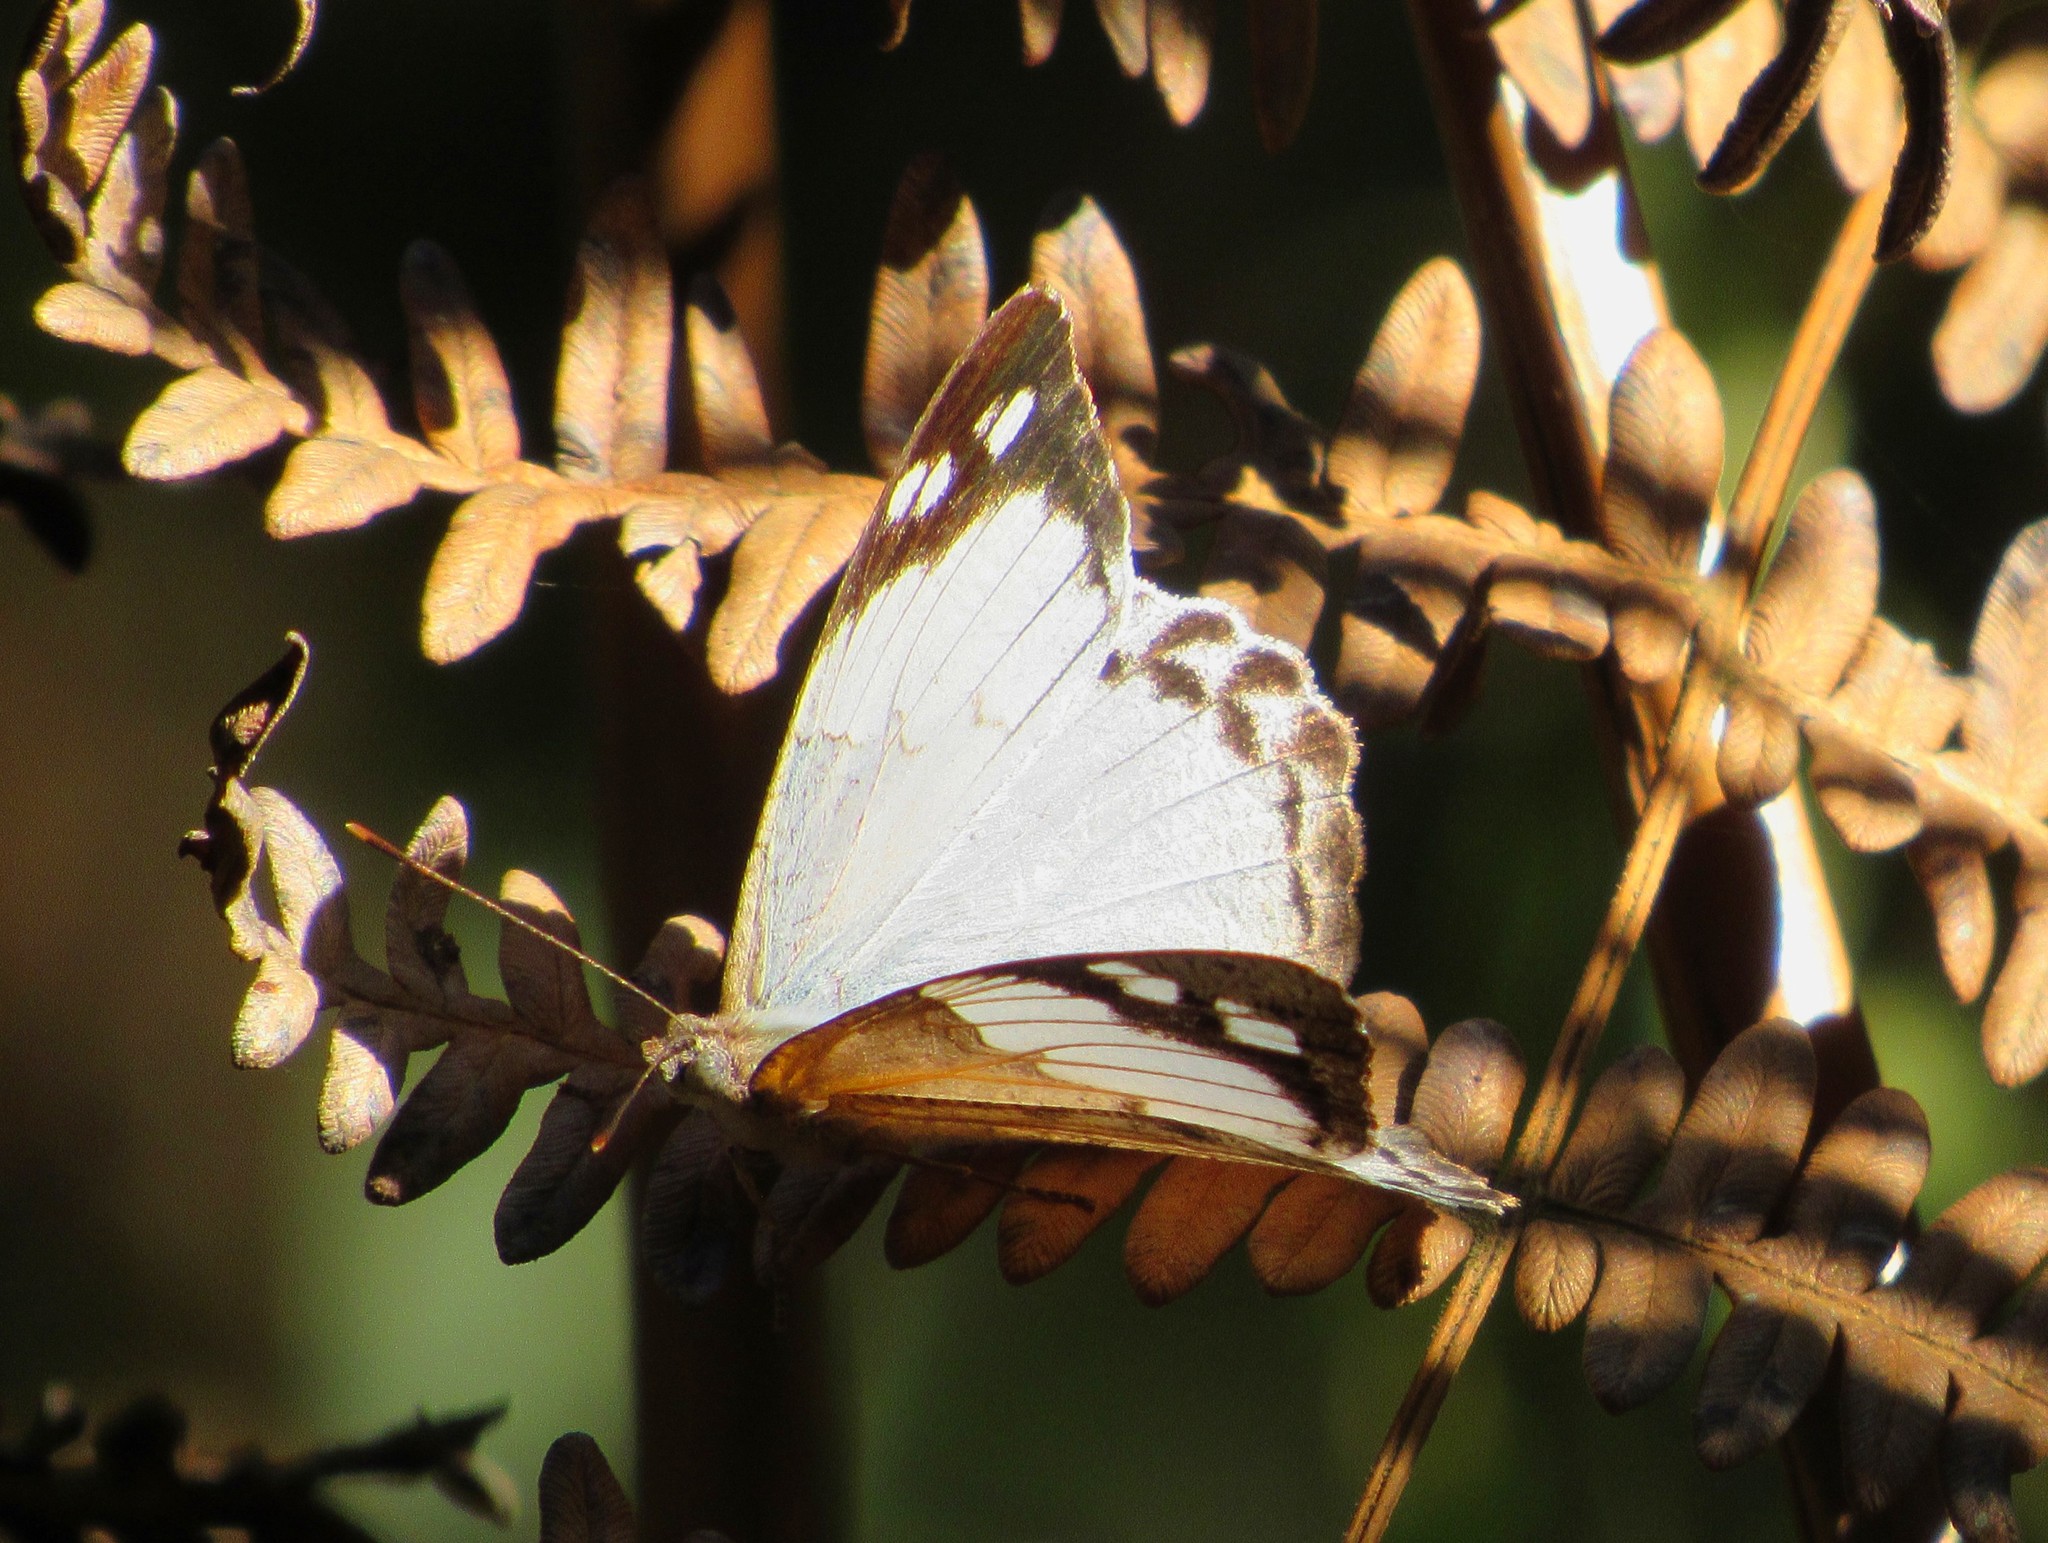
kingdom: Animalia
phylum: Arthropoda
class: Insecta
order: Lepidoptera
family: Nymphalidae
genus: Eunica
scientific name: Eunica eburnea
